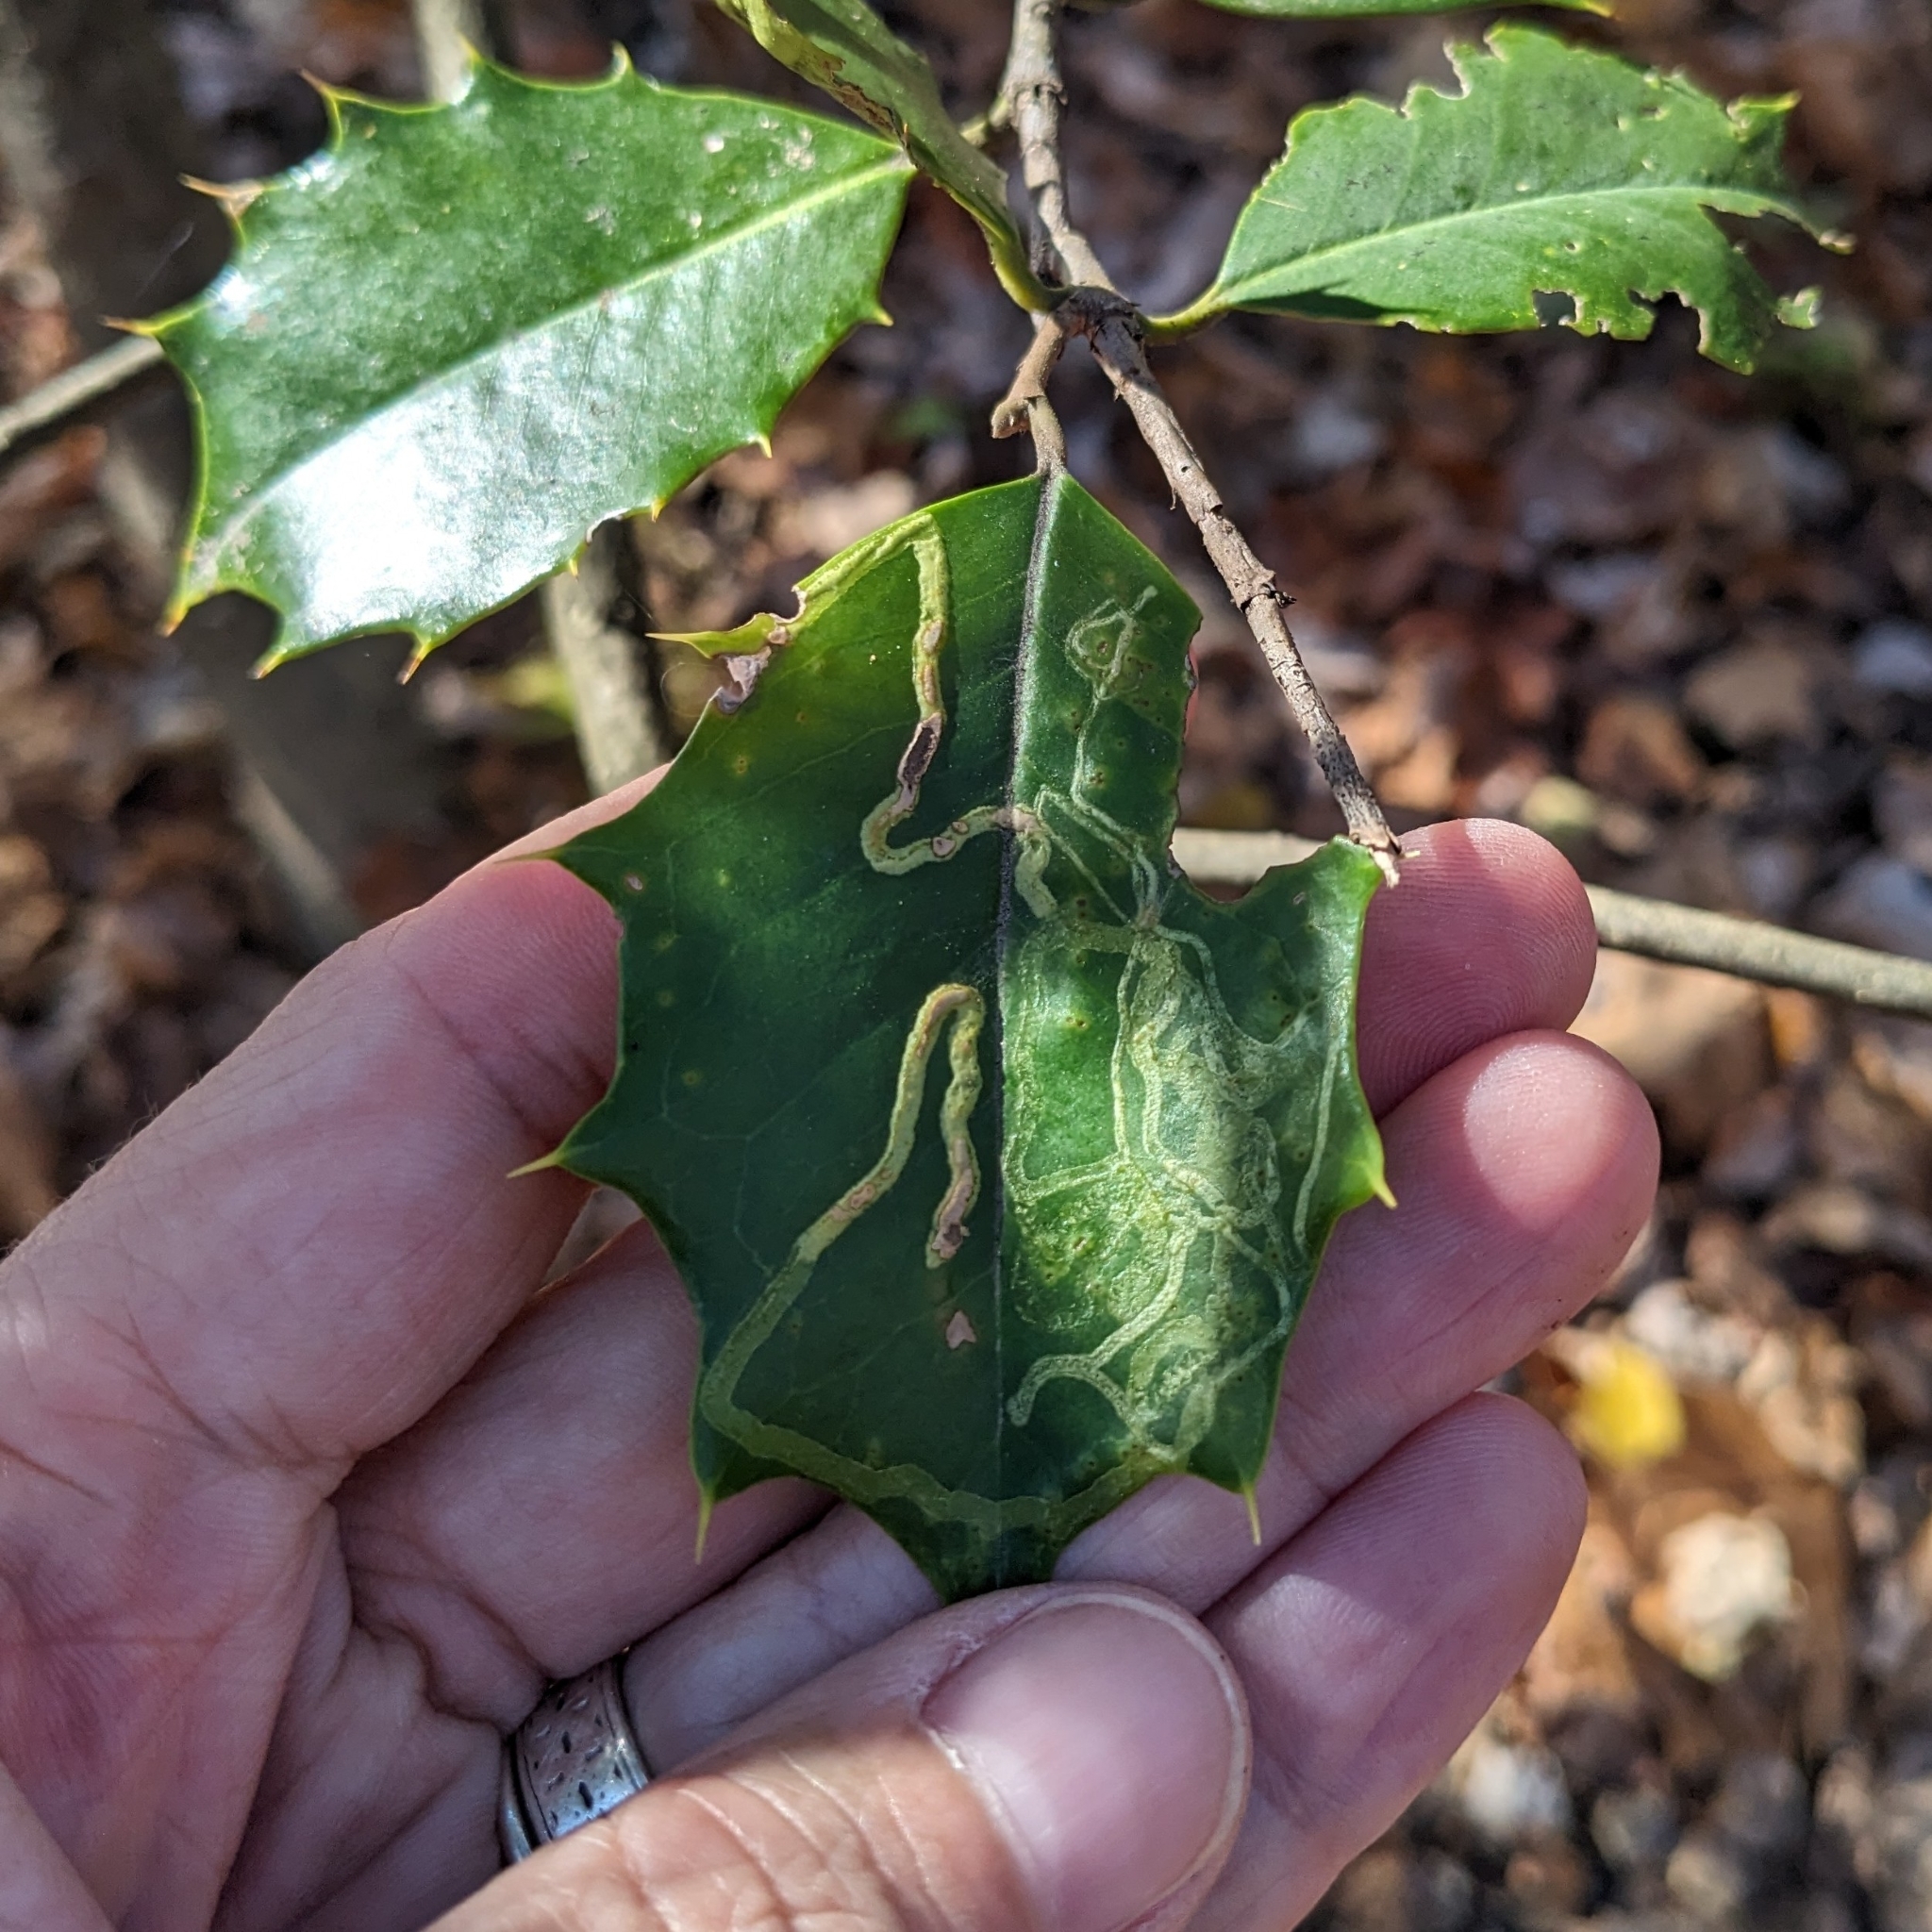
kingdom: Animalia
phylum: Arthropoda
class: Insecta
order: Diptera
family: Agromyzidae
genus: Phytomyza
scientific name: Phytomyza opacae
